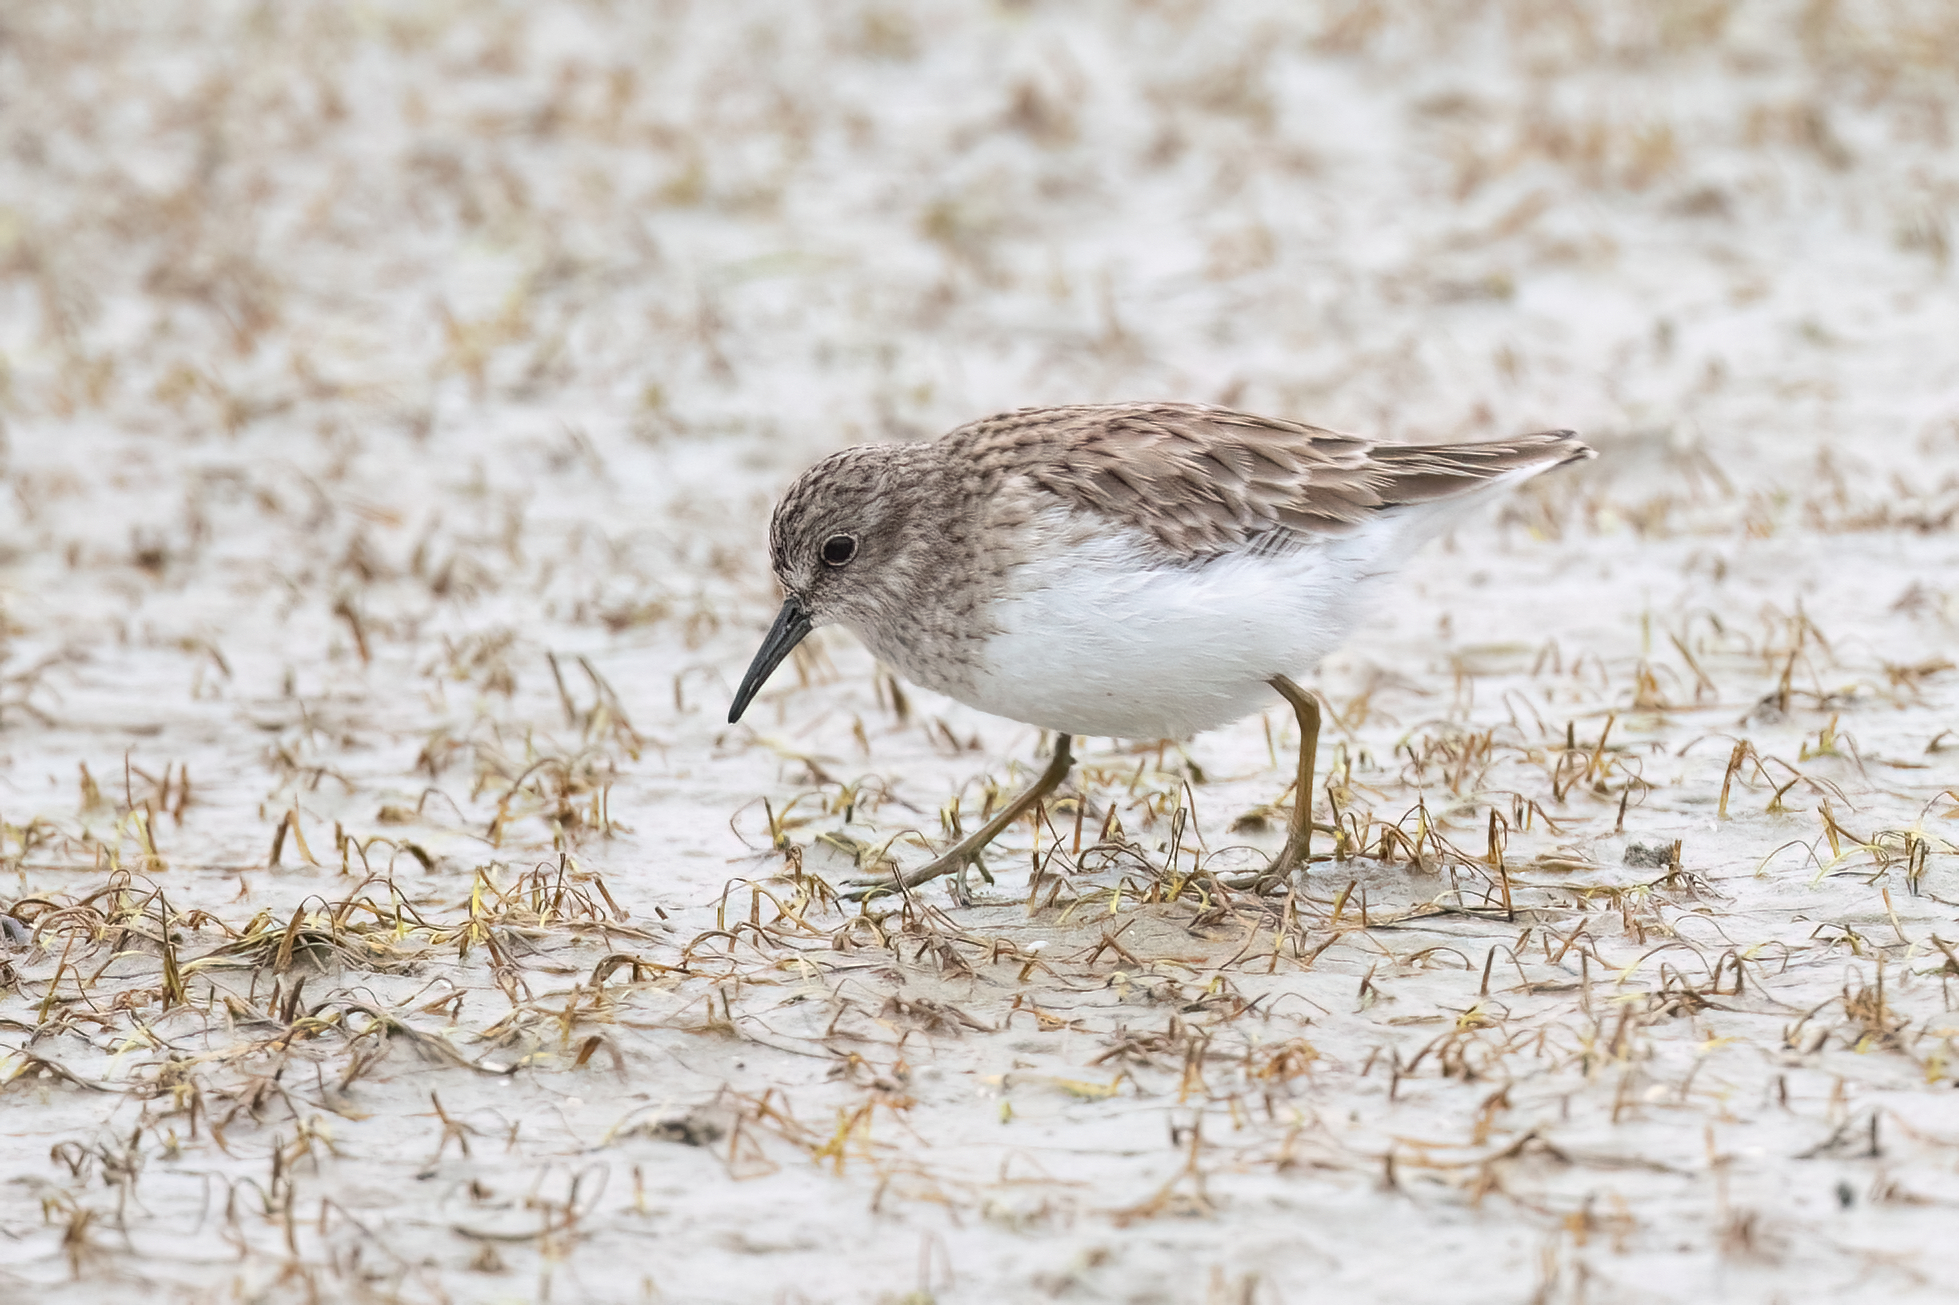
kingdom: Animalia
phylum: Chordata
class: Aves
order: Charadriiformes
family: Scolopacidae
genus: Calidris
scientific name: Calidris minutilla
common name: Least sandpiper
